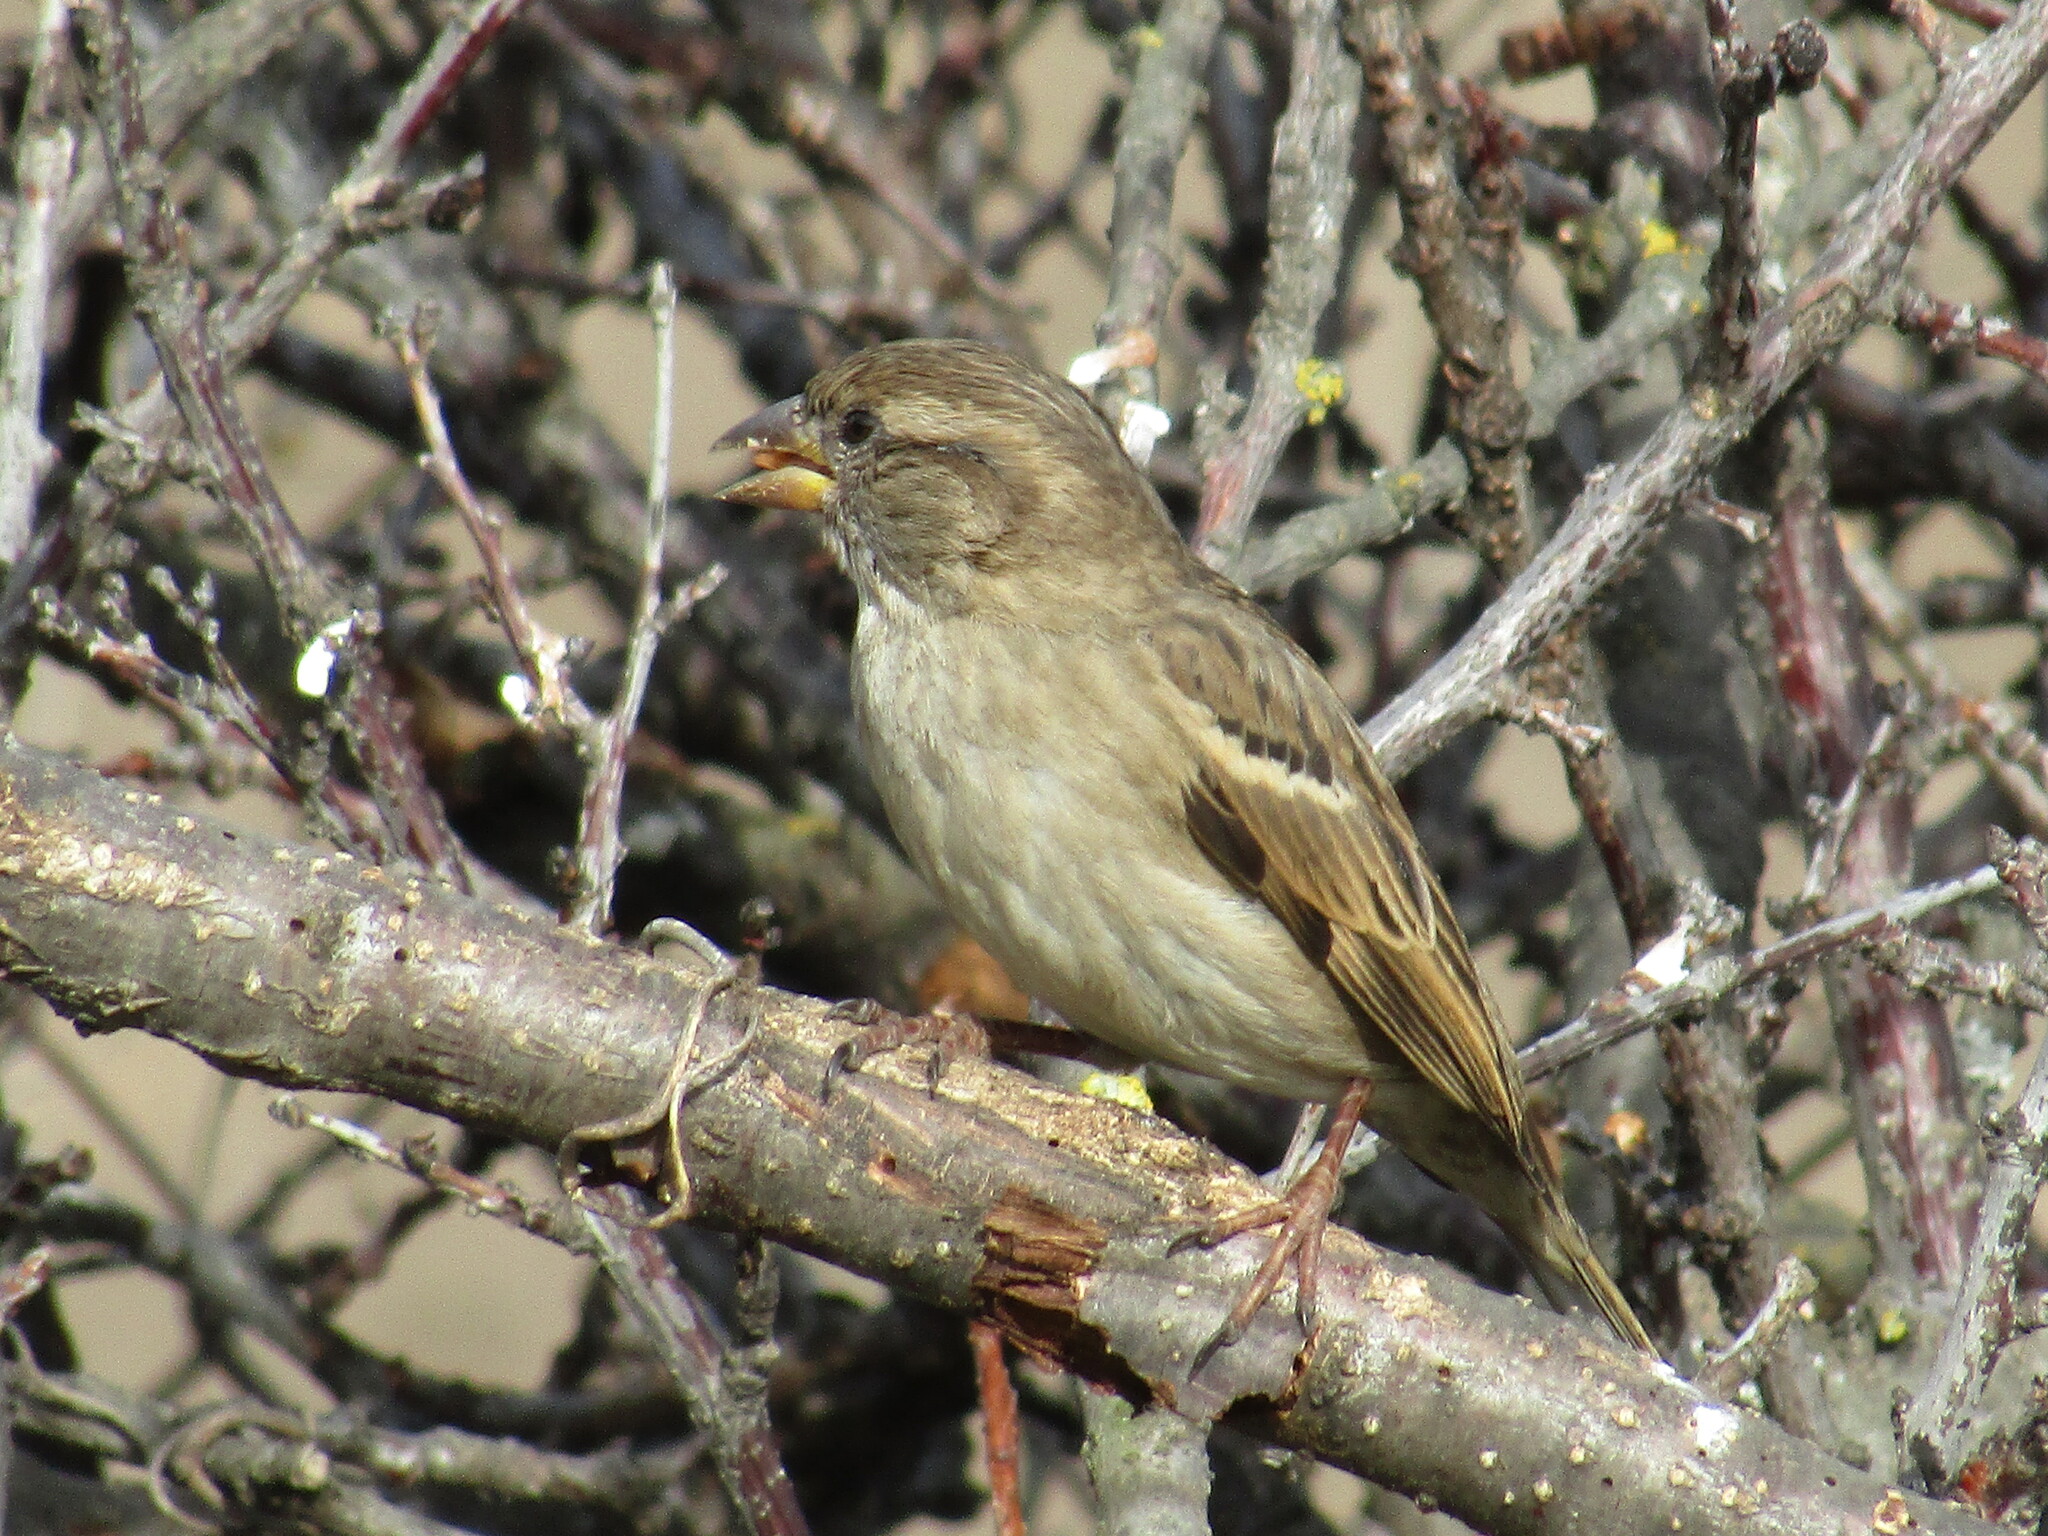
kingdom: Animalia
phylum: Chordata
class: Aves
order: Passeriformes
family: Passeridae
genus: Passer
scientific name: Passer domesticus
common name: House sparrow
